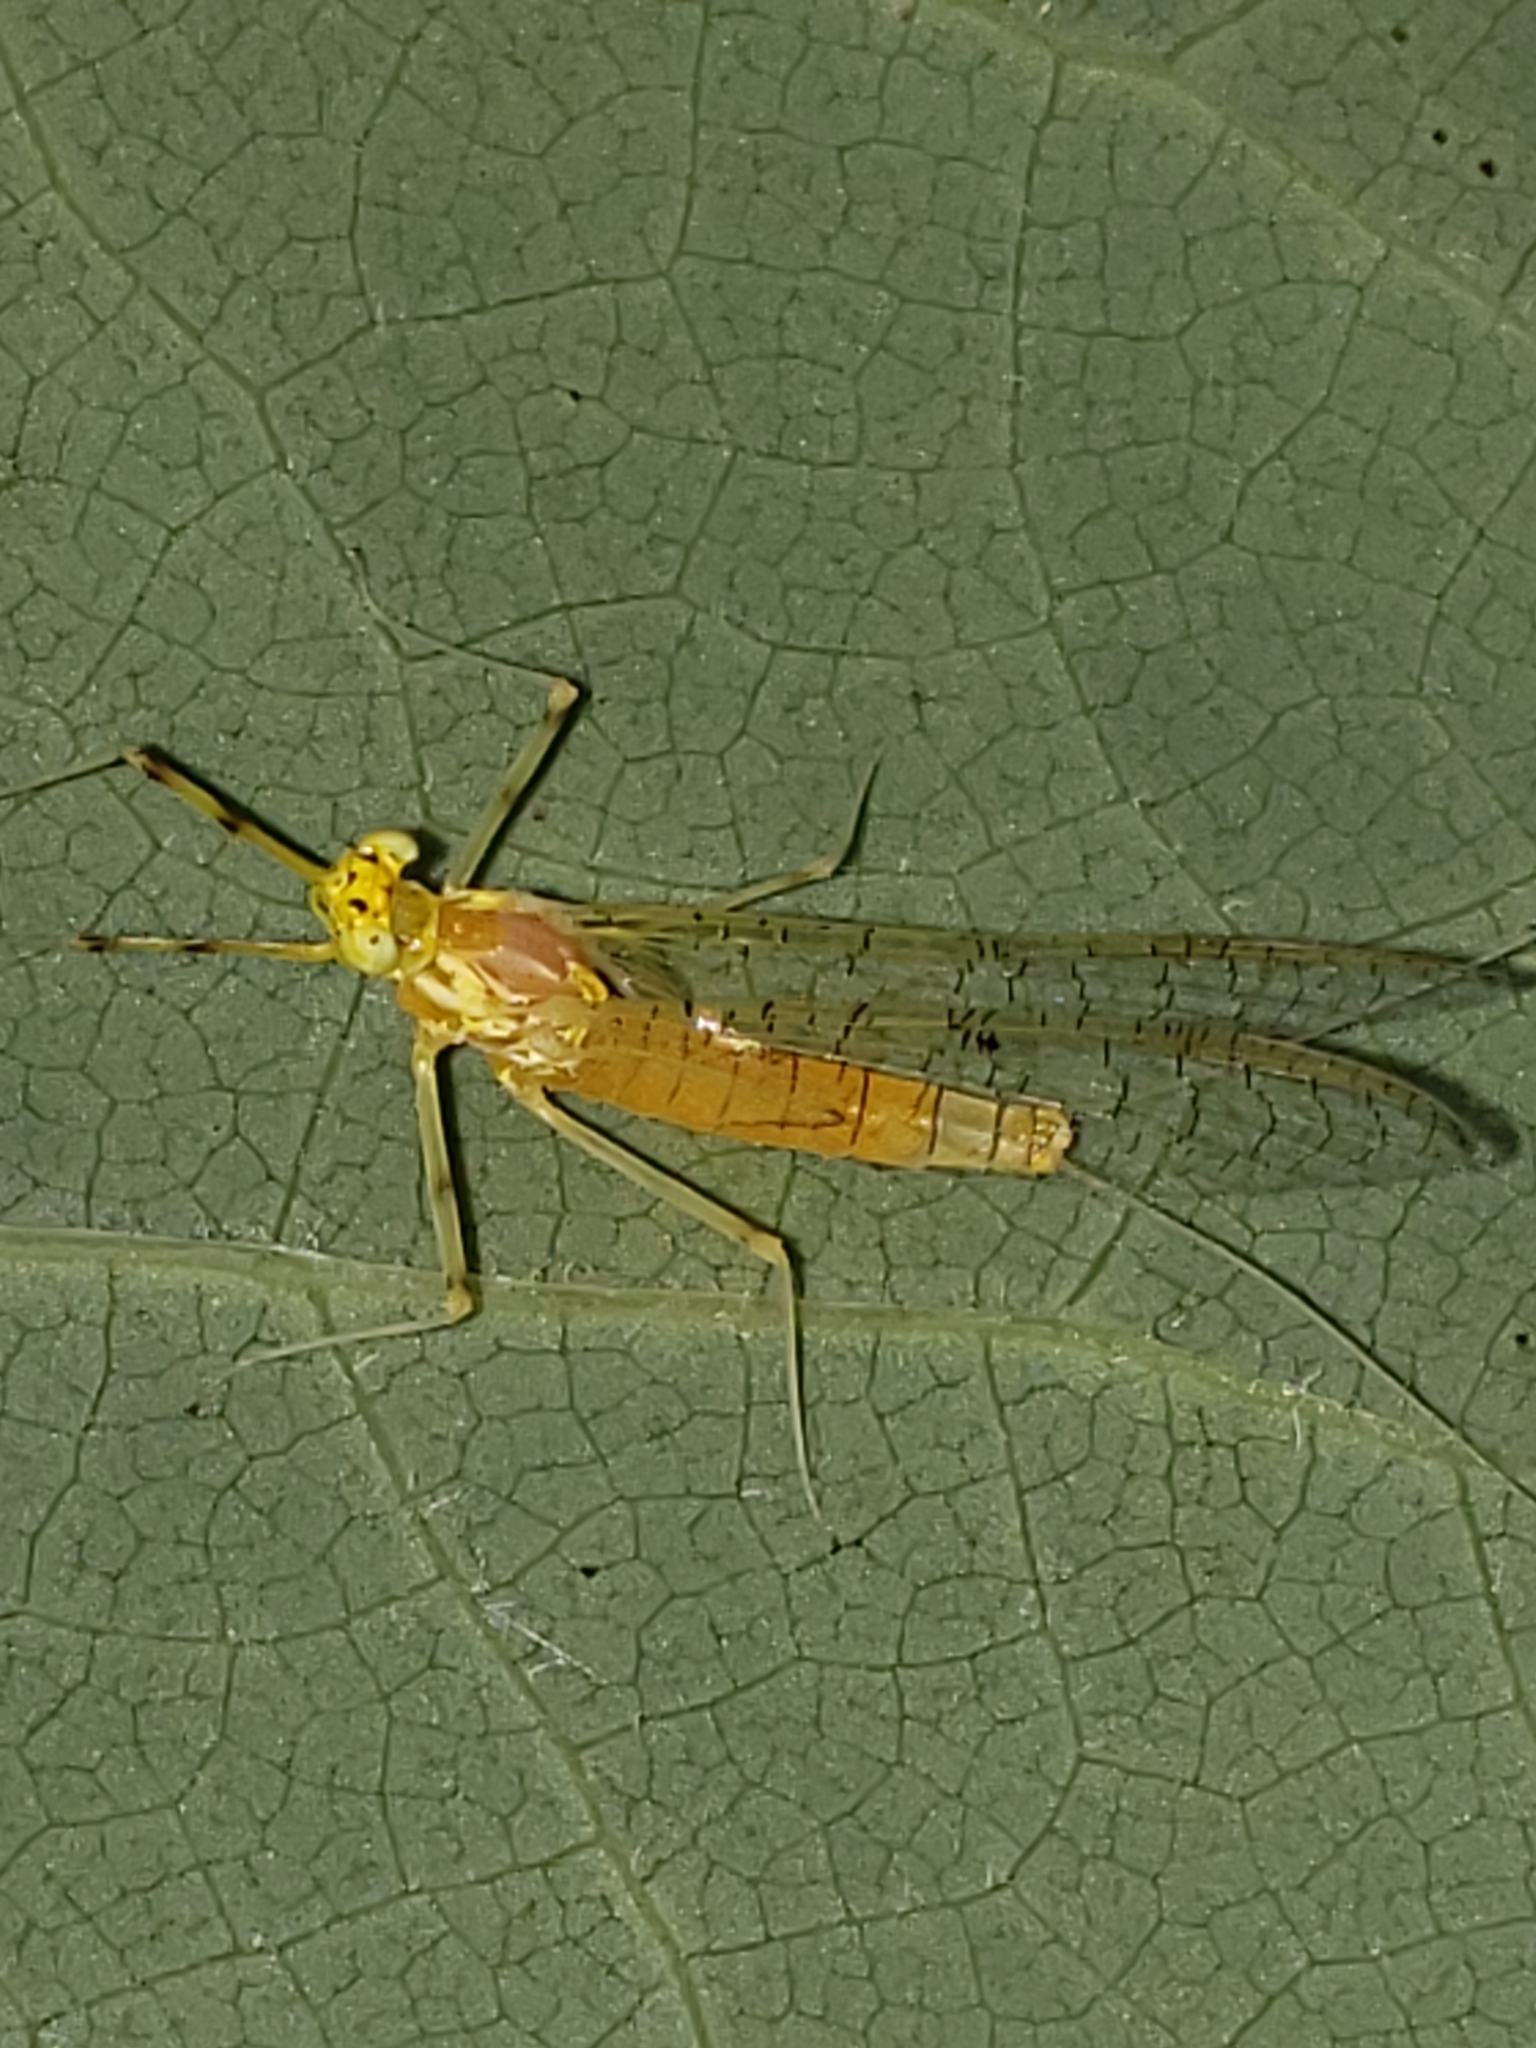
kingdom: Animalia
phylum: Arthropoda
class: Insecta
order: Ephemeroptera
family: Heptageniidae
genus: Stenacron
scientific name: Stenacron interpunctatum
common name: Orange cahill
